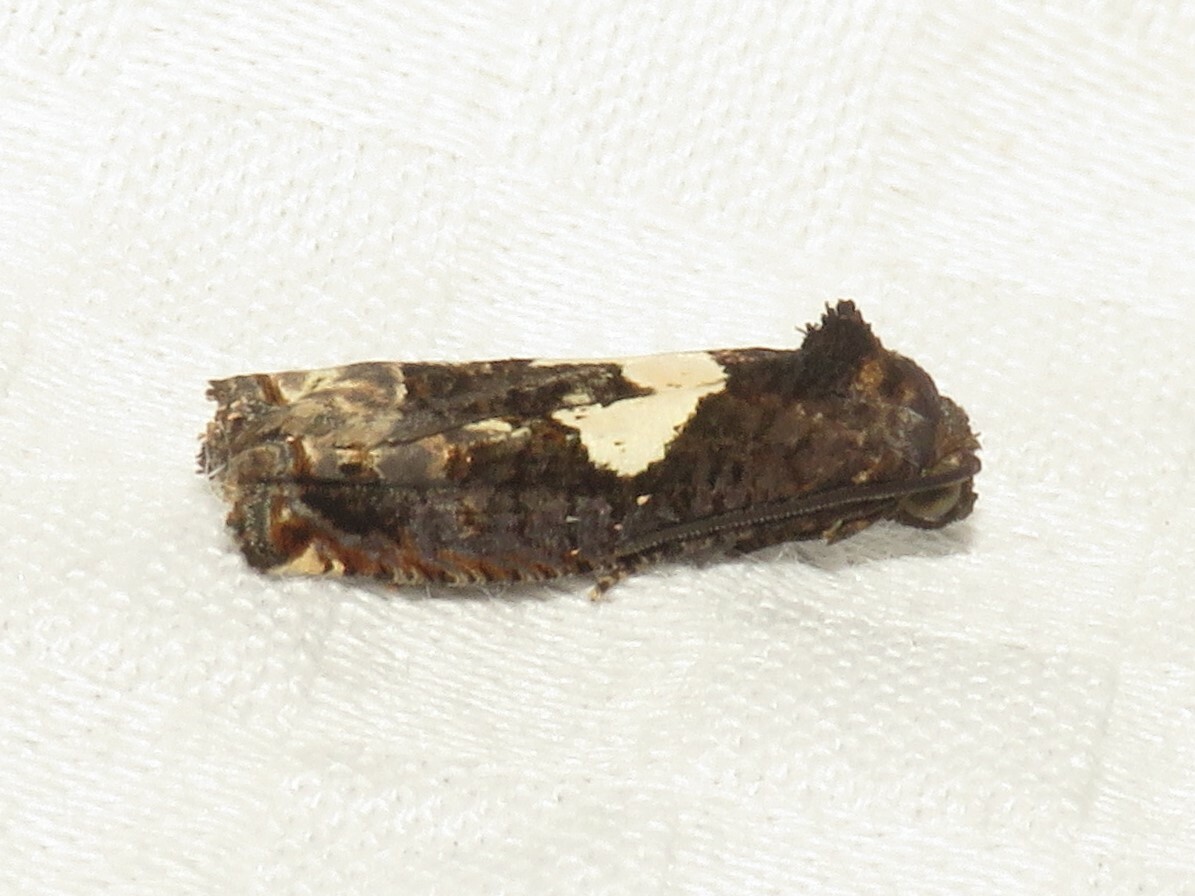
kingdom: Animalia
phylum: Arthropoda
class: Insecta
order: Lepidoptera
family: Tortricidae
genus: Epiblema
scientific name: Epiblema otiosana
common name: Bidens borer moth
